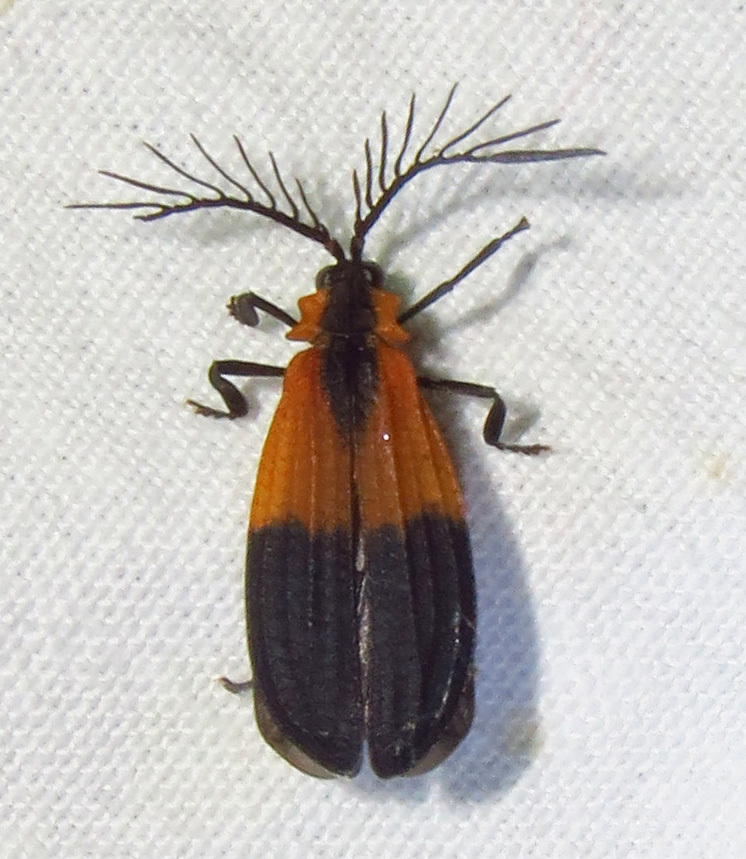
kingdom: Animalia
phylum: Arthropoda
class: Insecta
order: Coleoptera
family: Lycidae
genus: Caenia
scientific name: Caenia dimidiata
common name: Terminal net-winged beetle
